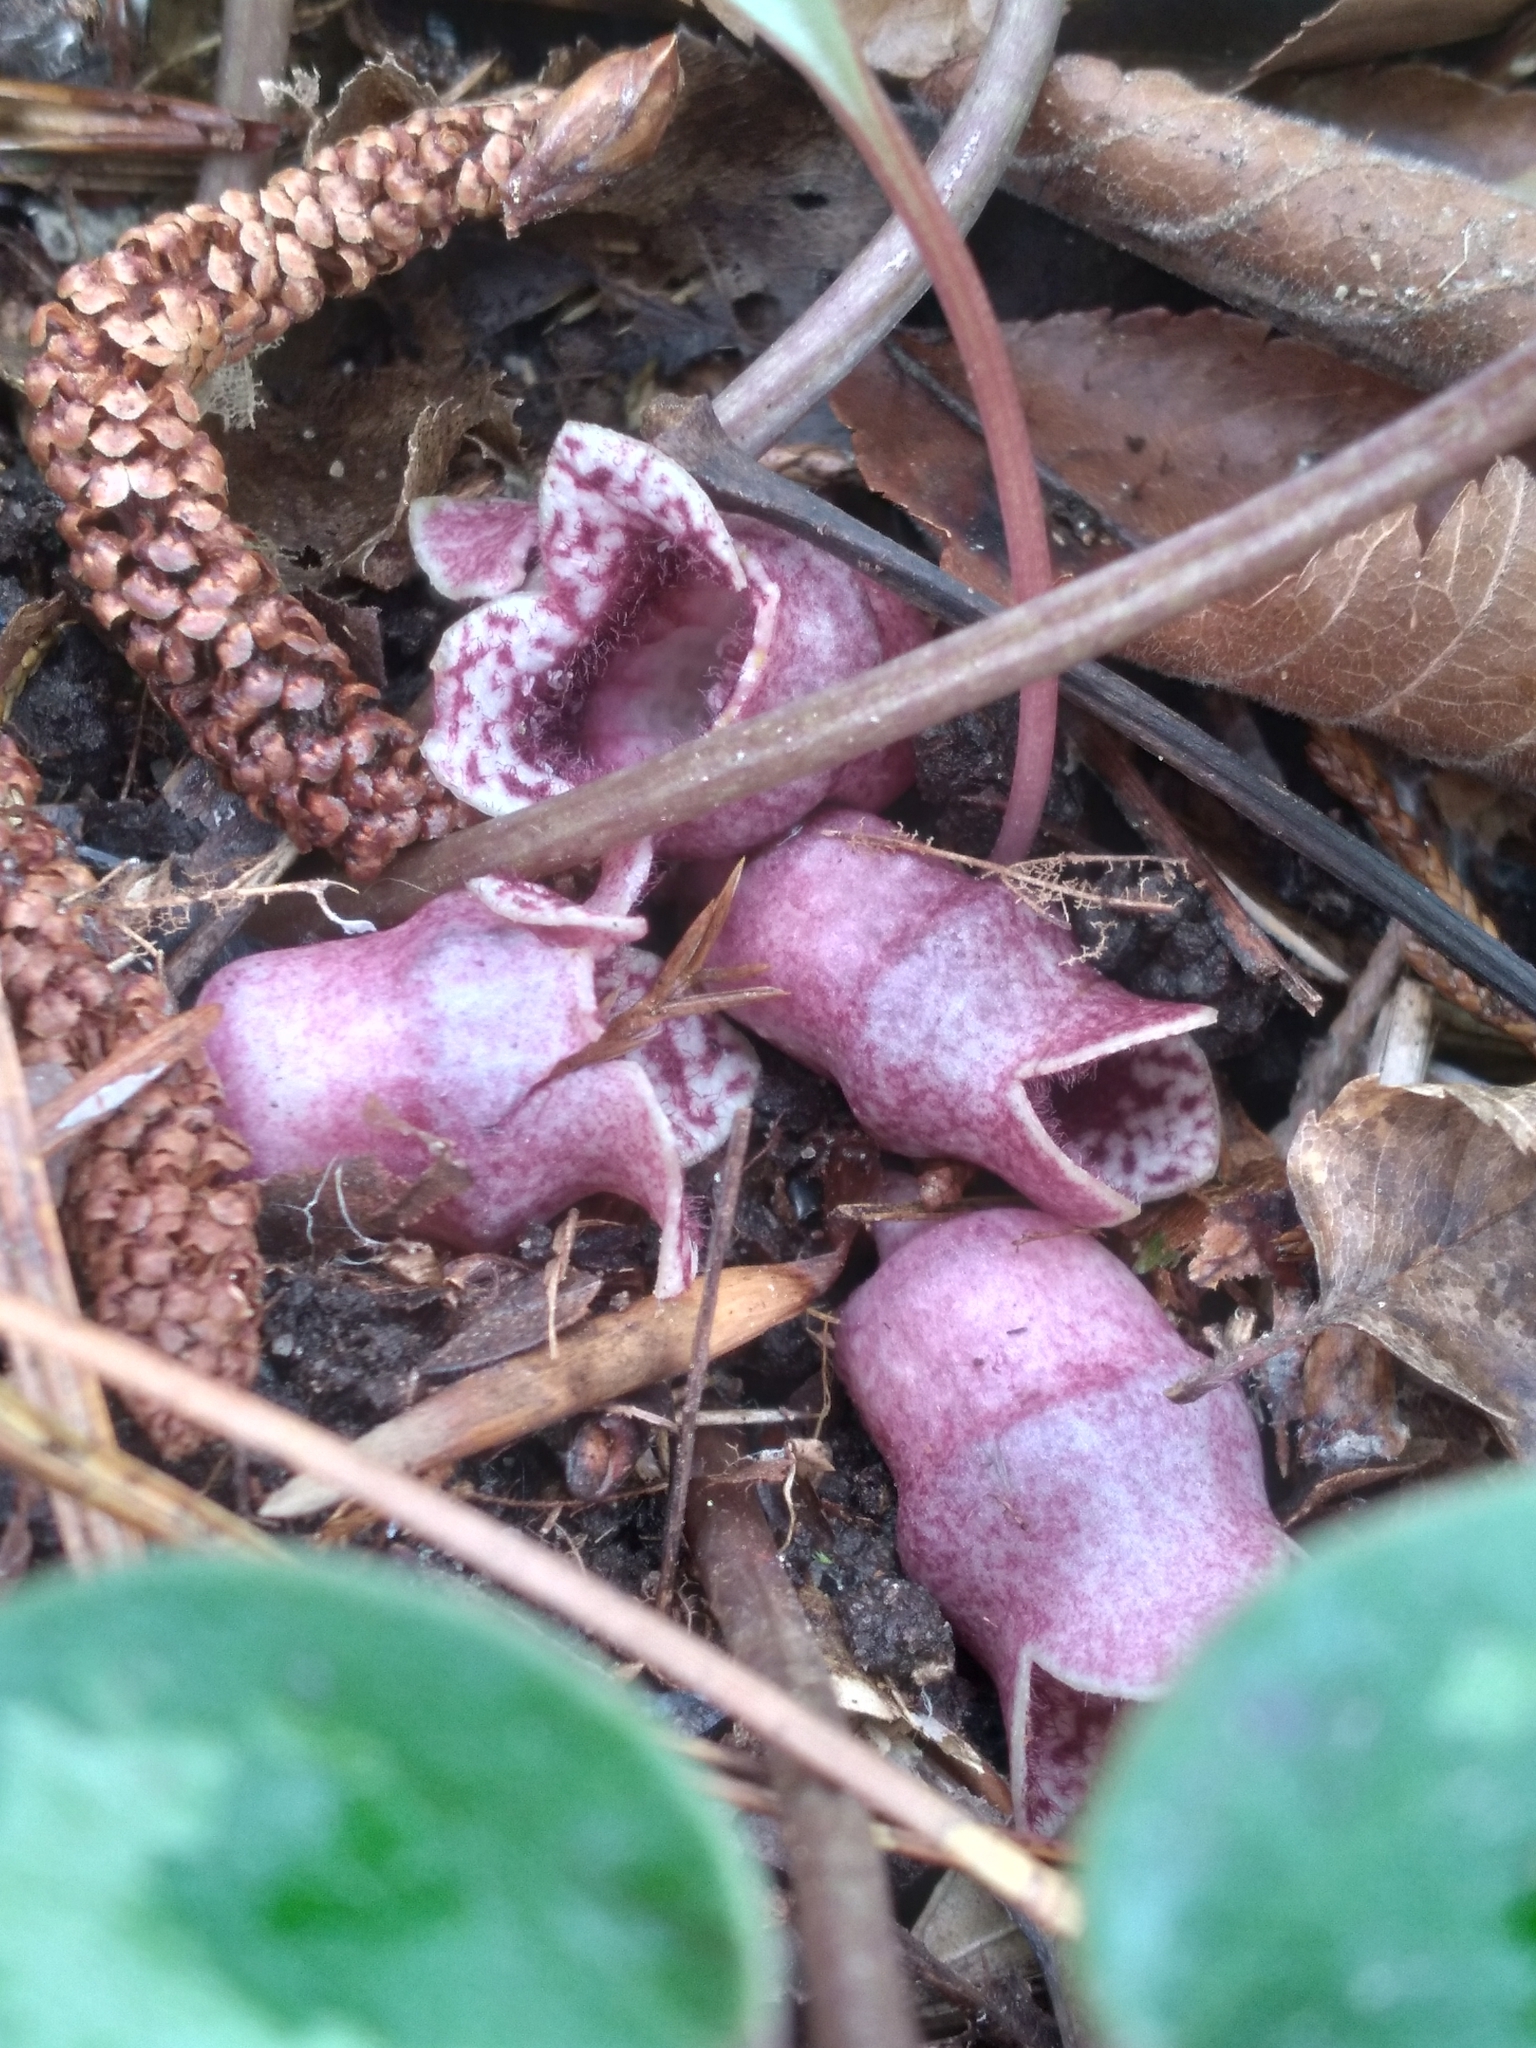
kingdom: Plantae
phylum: Tracheophyta
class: Magnoliopsida
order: Piperales
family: Aristolochiaceae
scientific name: Aristolochiaceae
